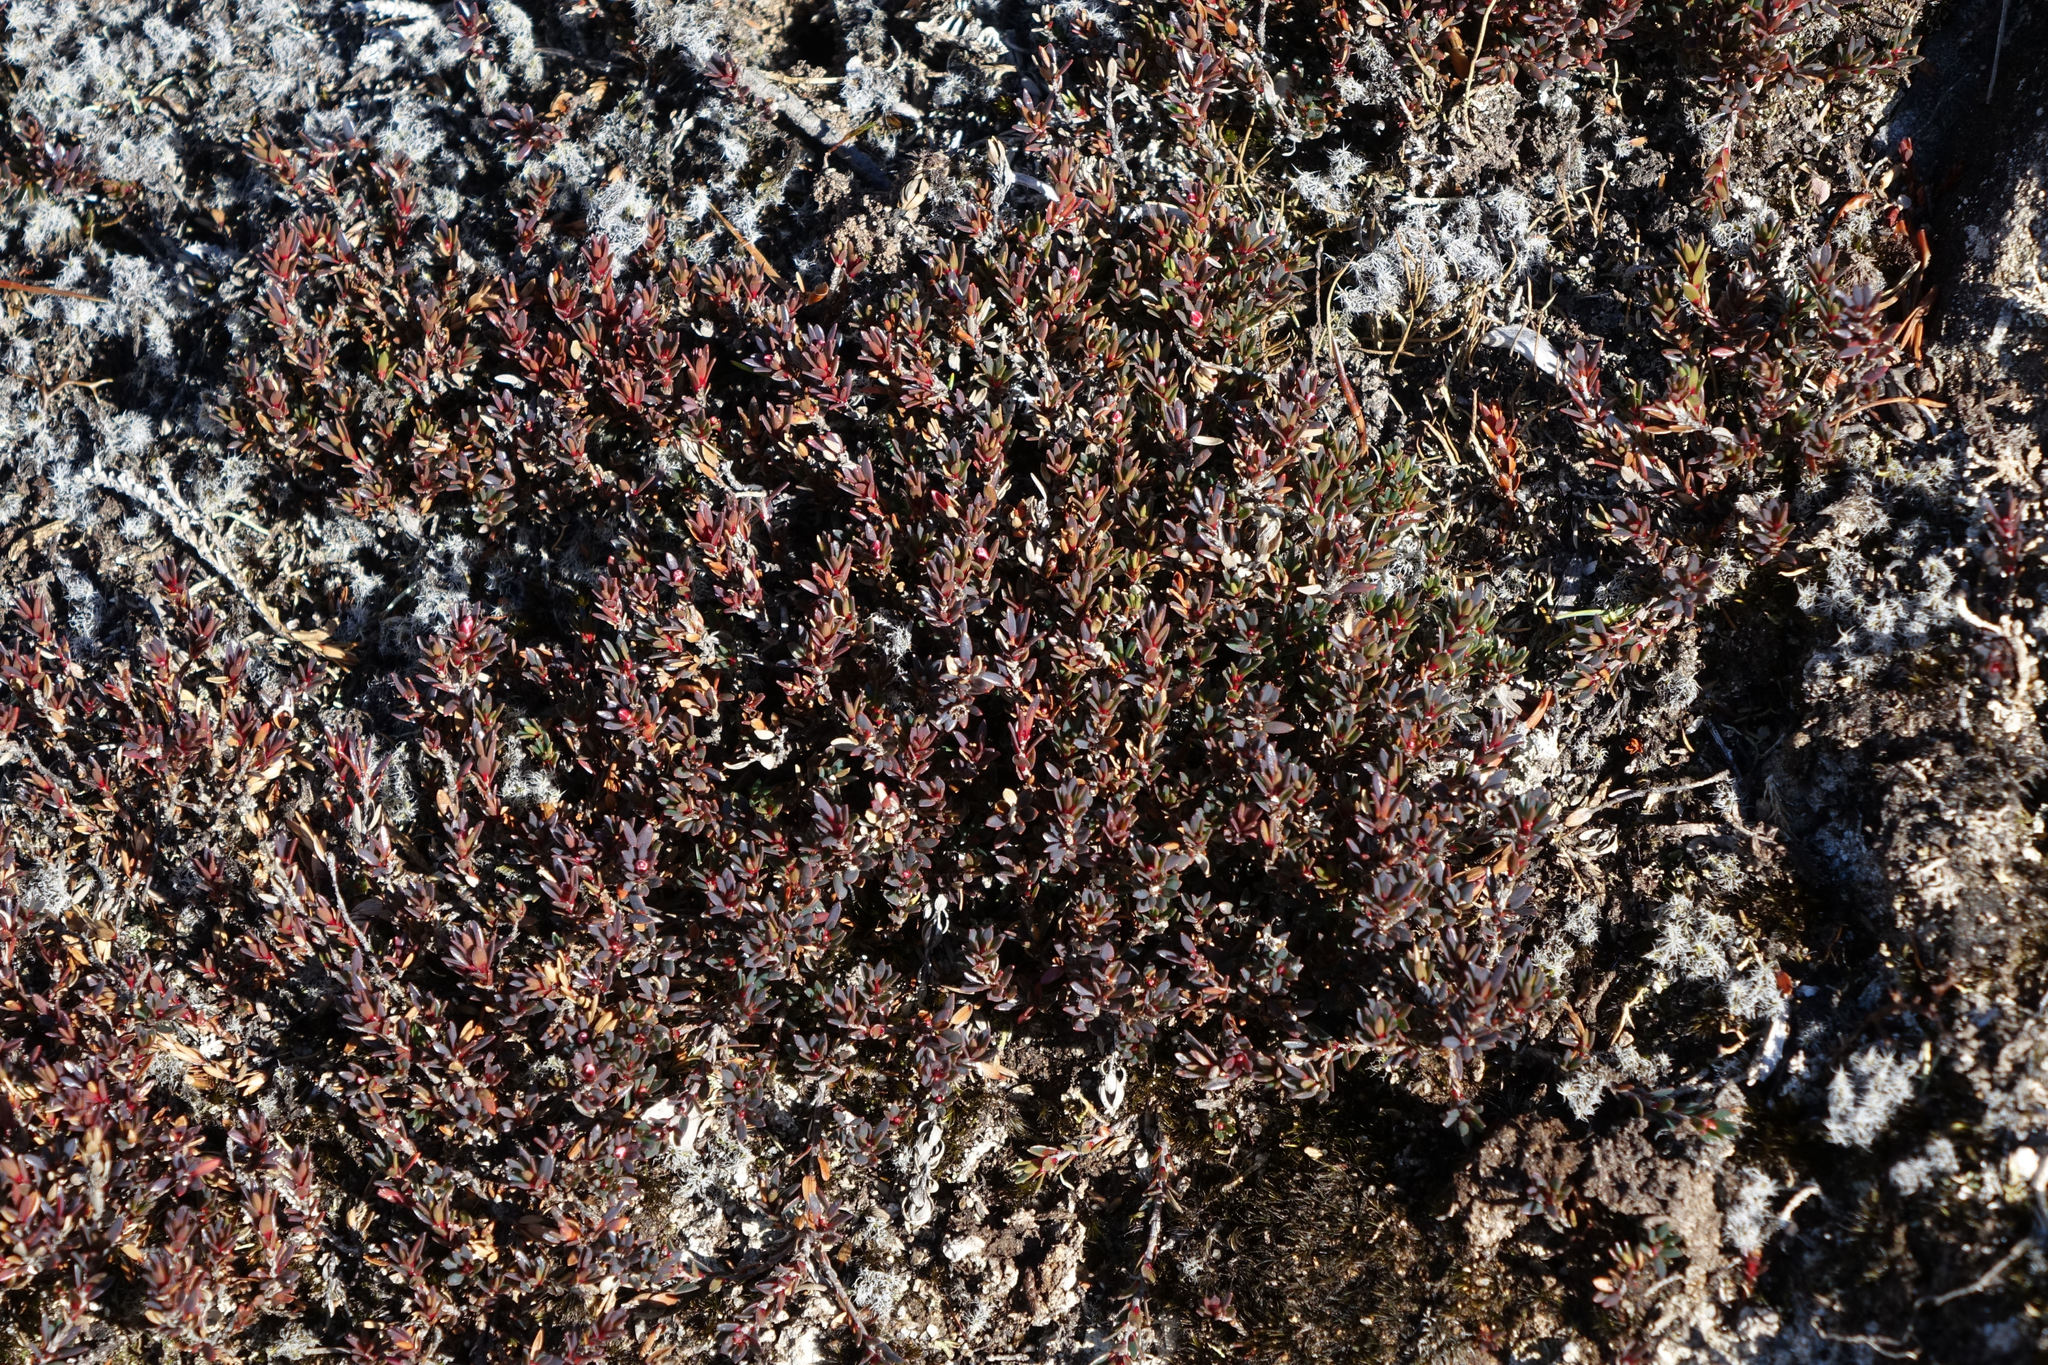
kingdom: Plantae
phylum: Tracheophyta
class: Magnoliopsida
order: Ericales
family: Ericaceae
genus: Pentachondra
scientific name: Pentachondra pumila
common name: Carpet-heath
